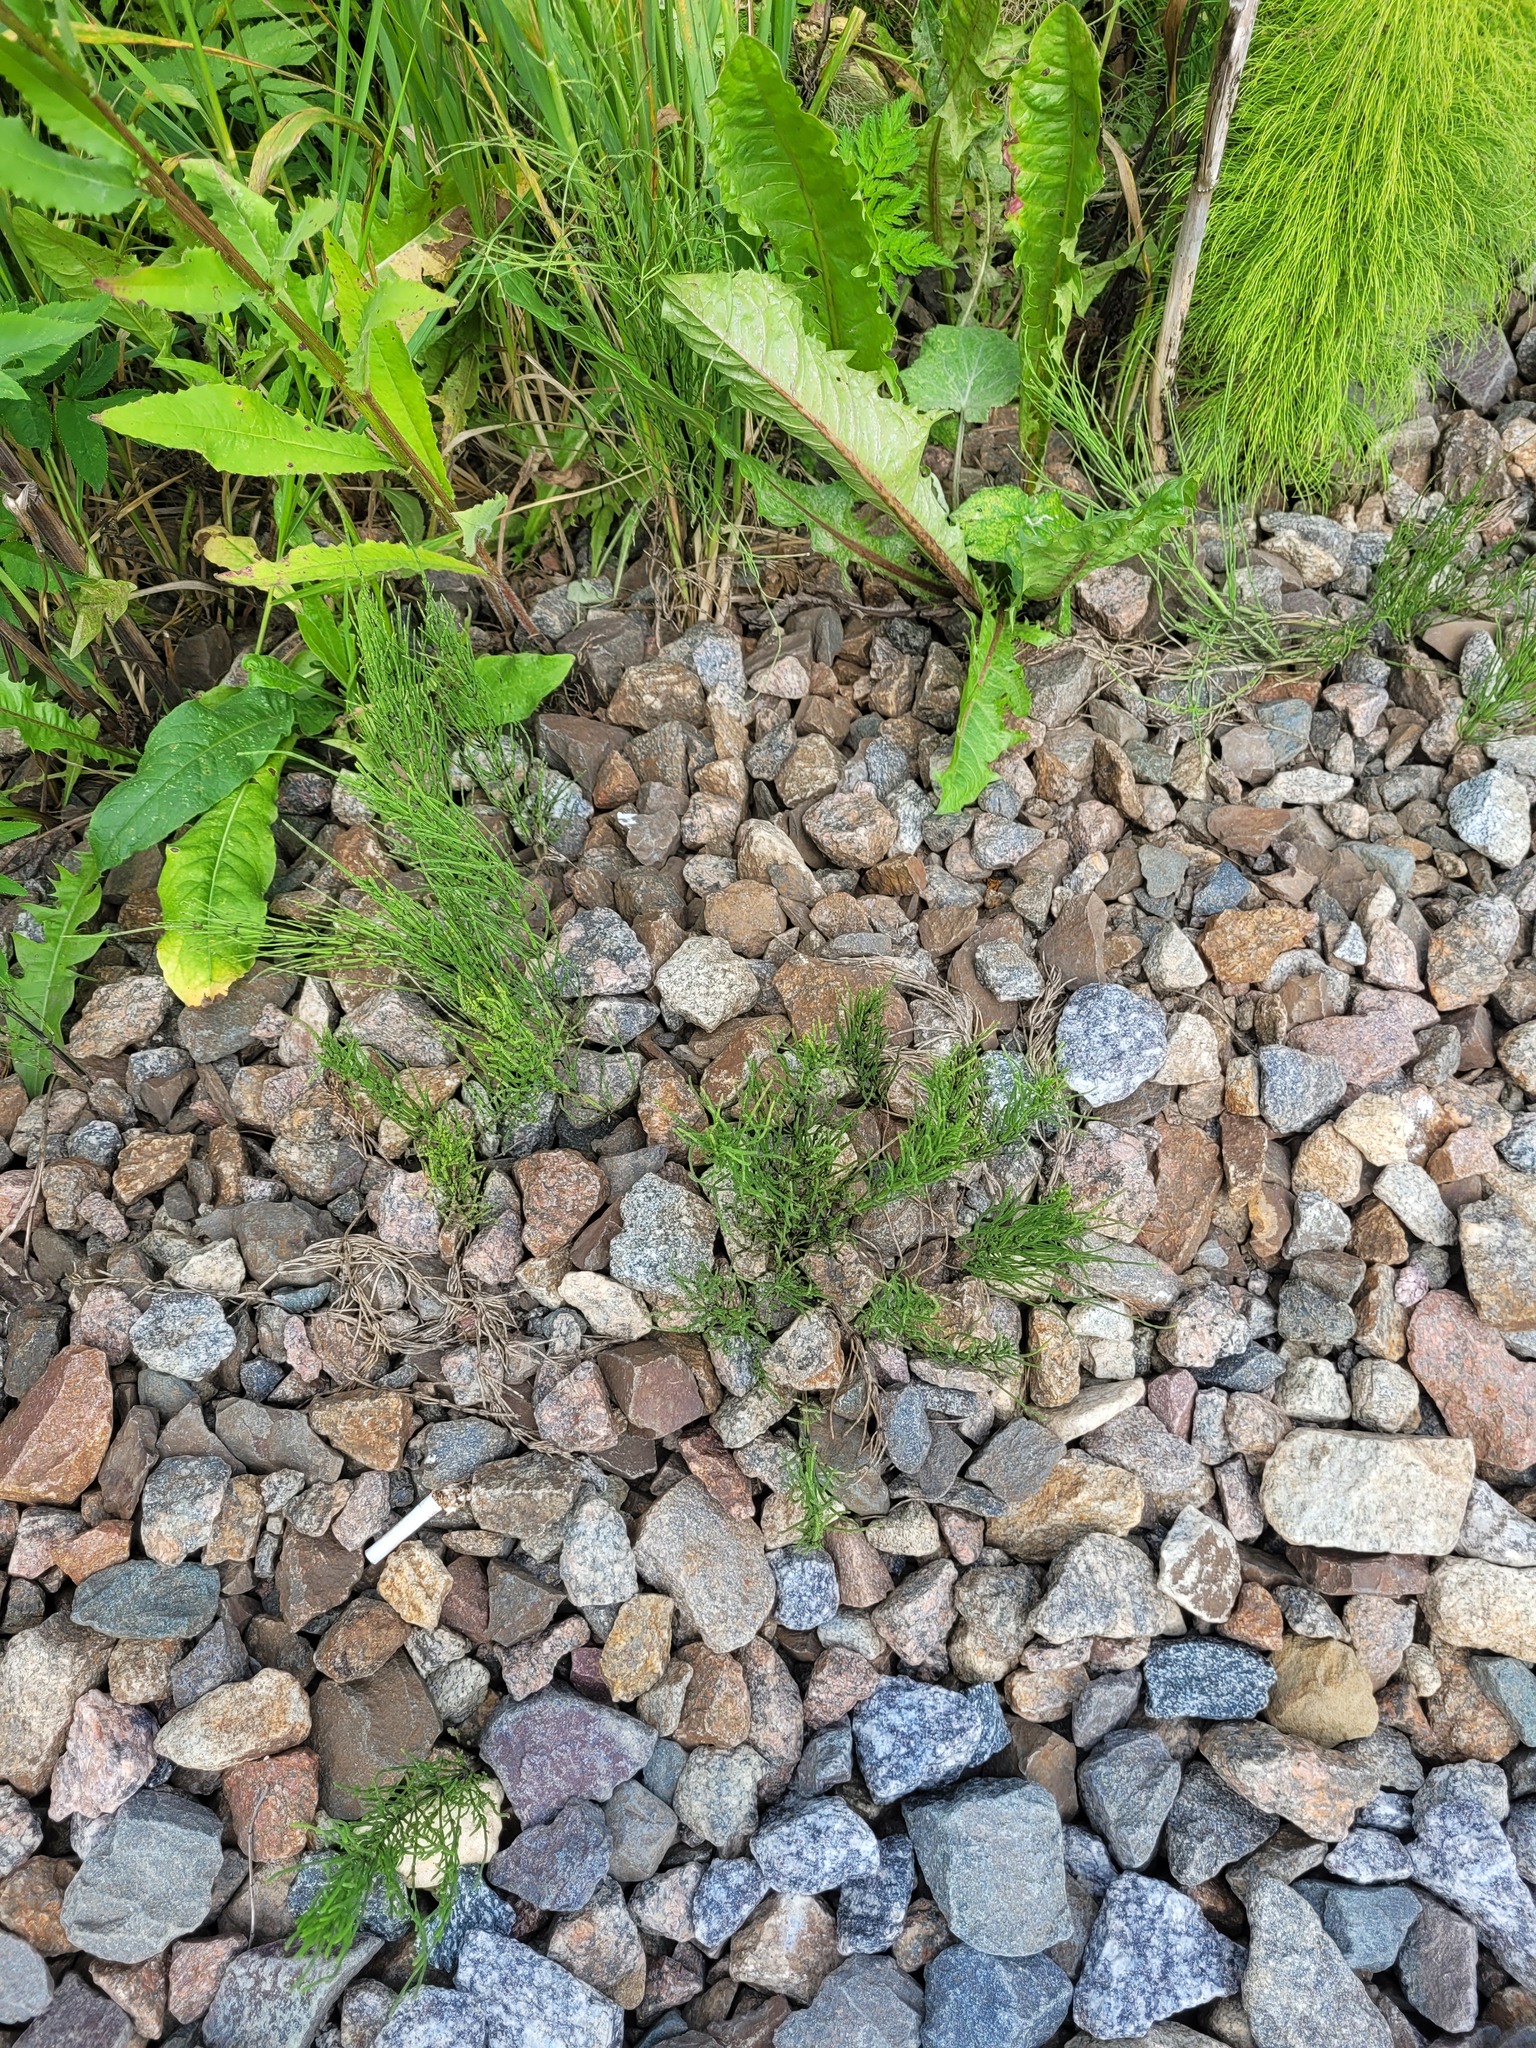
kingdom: Plantae
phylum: Tracheophyta
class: Polypodiopsida
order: Equisetales
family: Equisetaceae
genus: Equisetum
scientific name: Equisetum arvense
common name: Field horsetail
